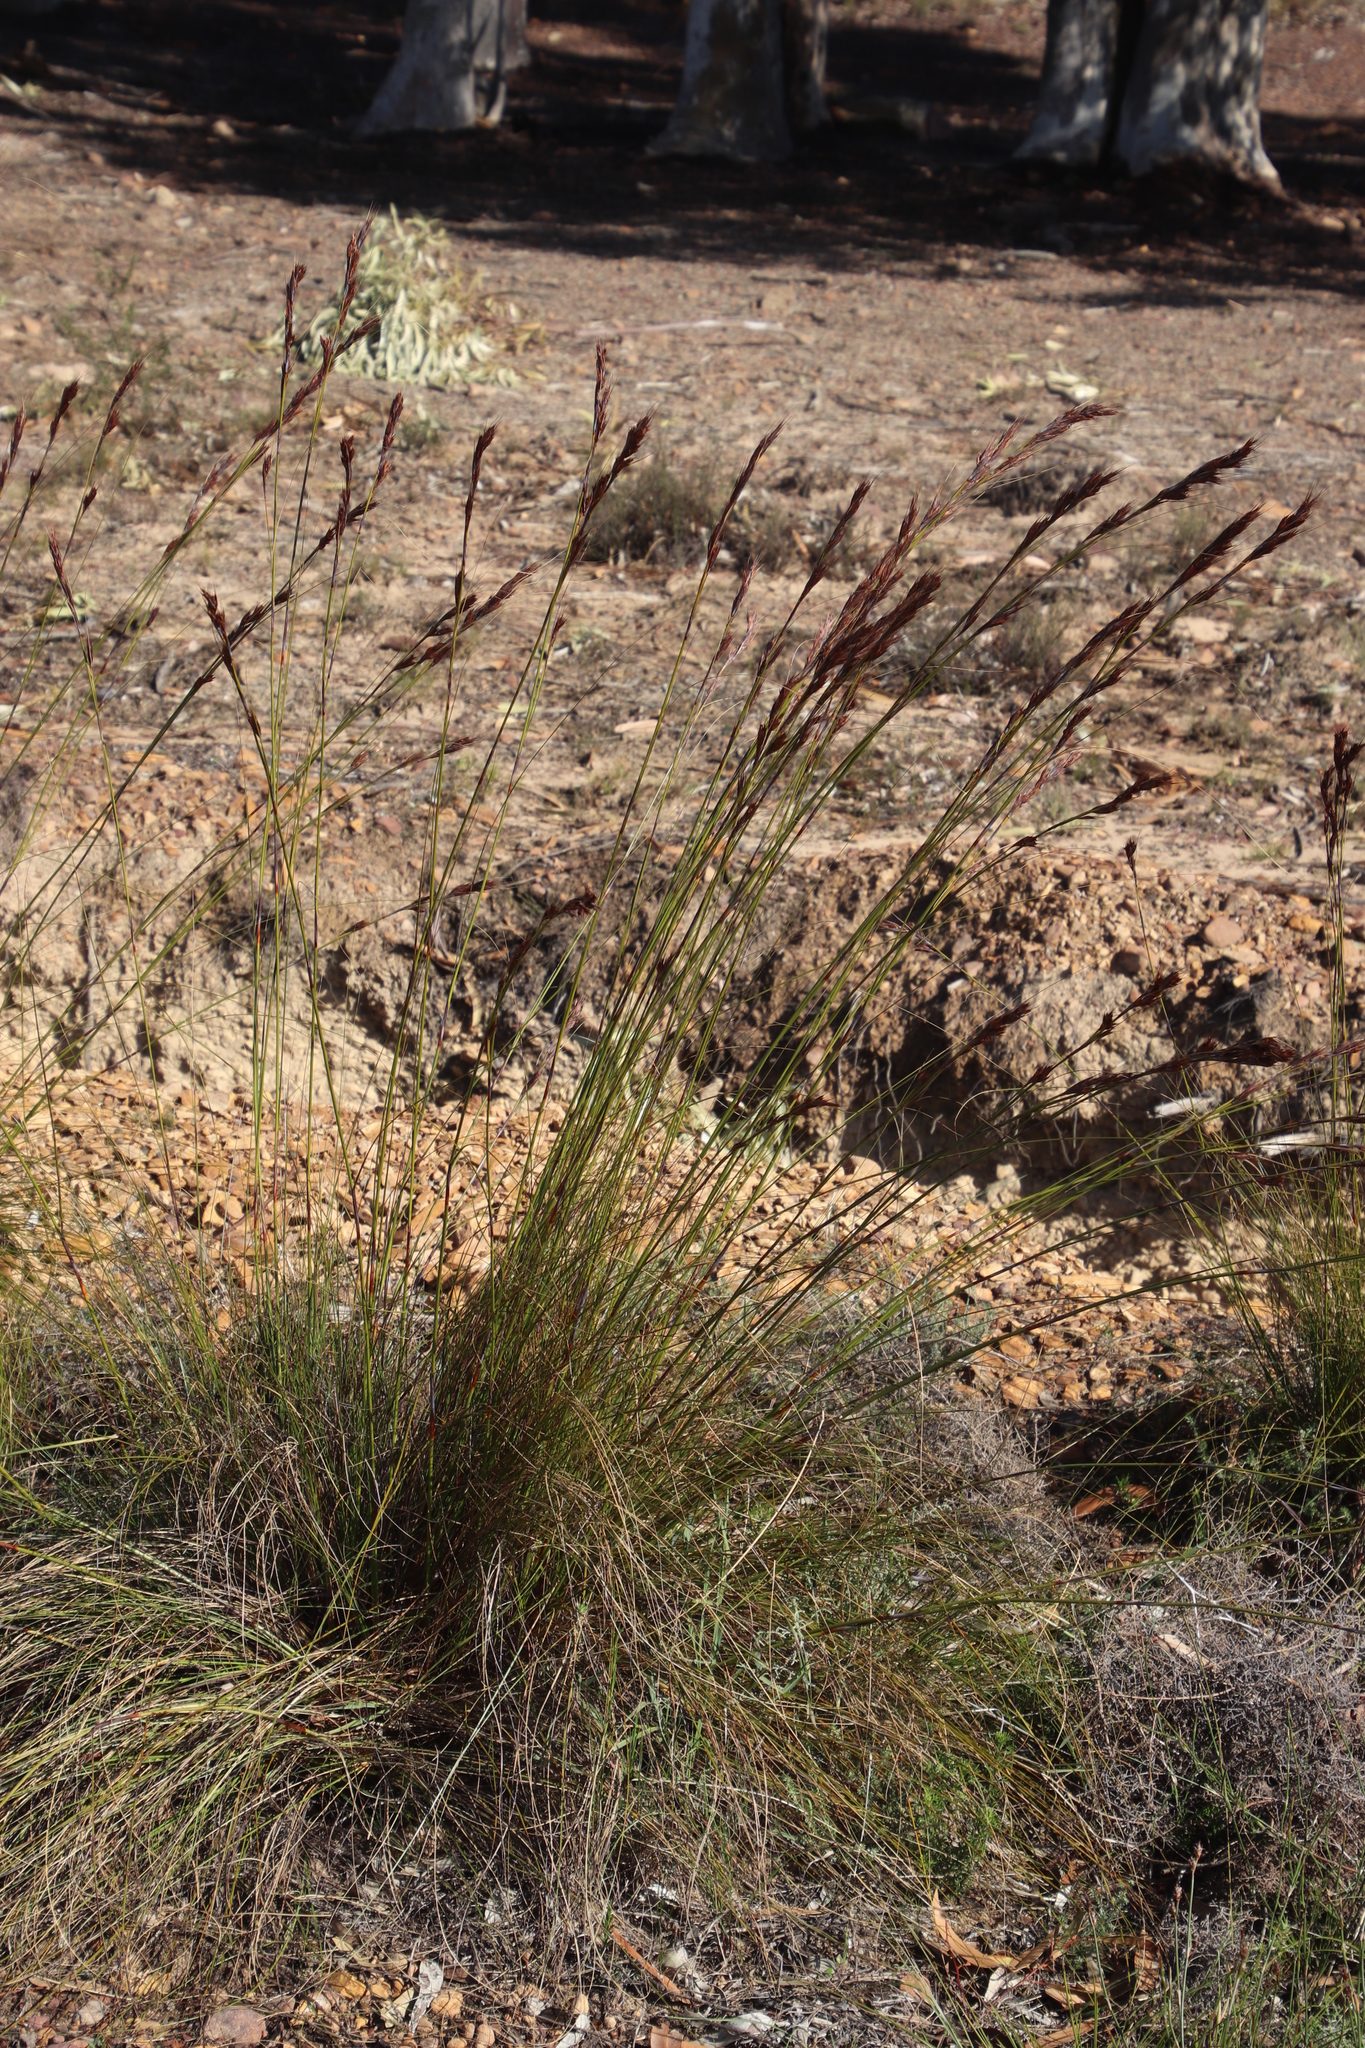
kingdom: Plantae
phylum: Tracheophyta
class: Liliopsida
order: Poales
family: Cyperaceae
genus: Tetraria
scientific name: Tetraria ustulata
